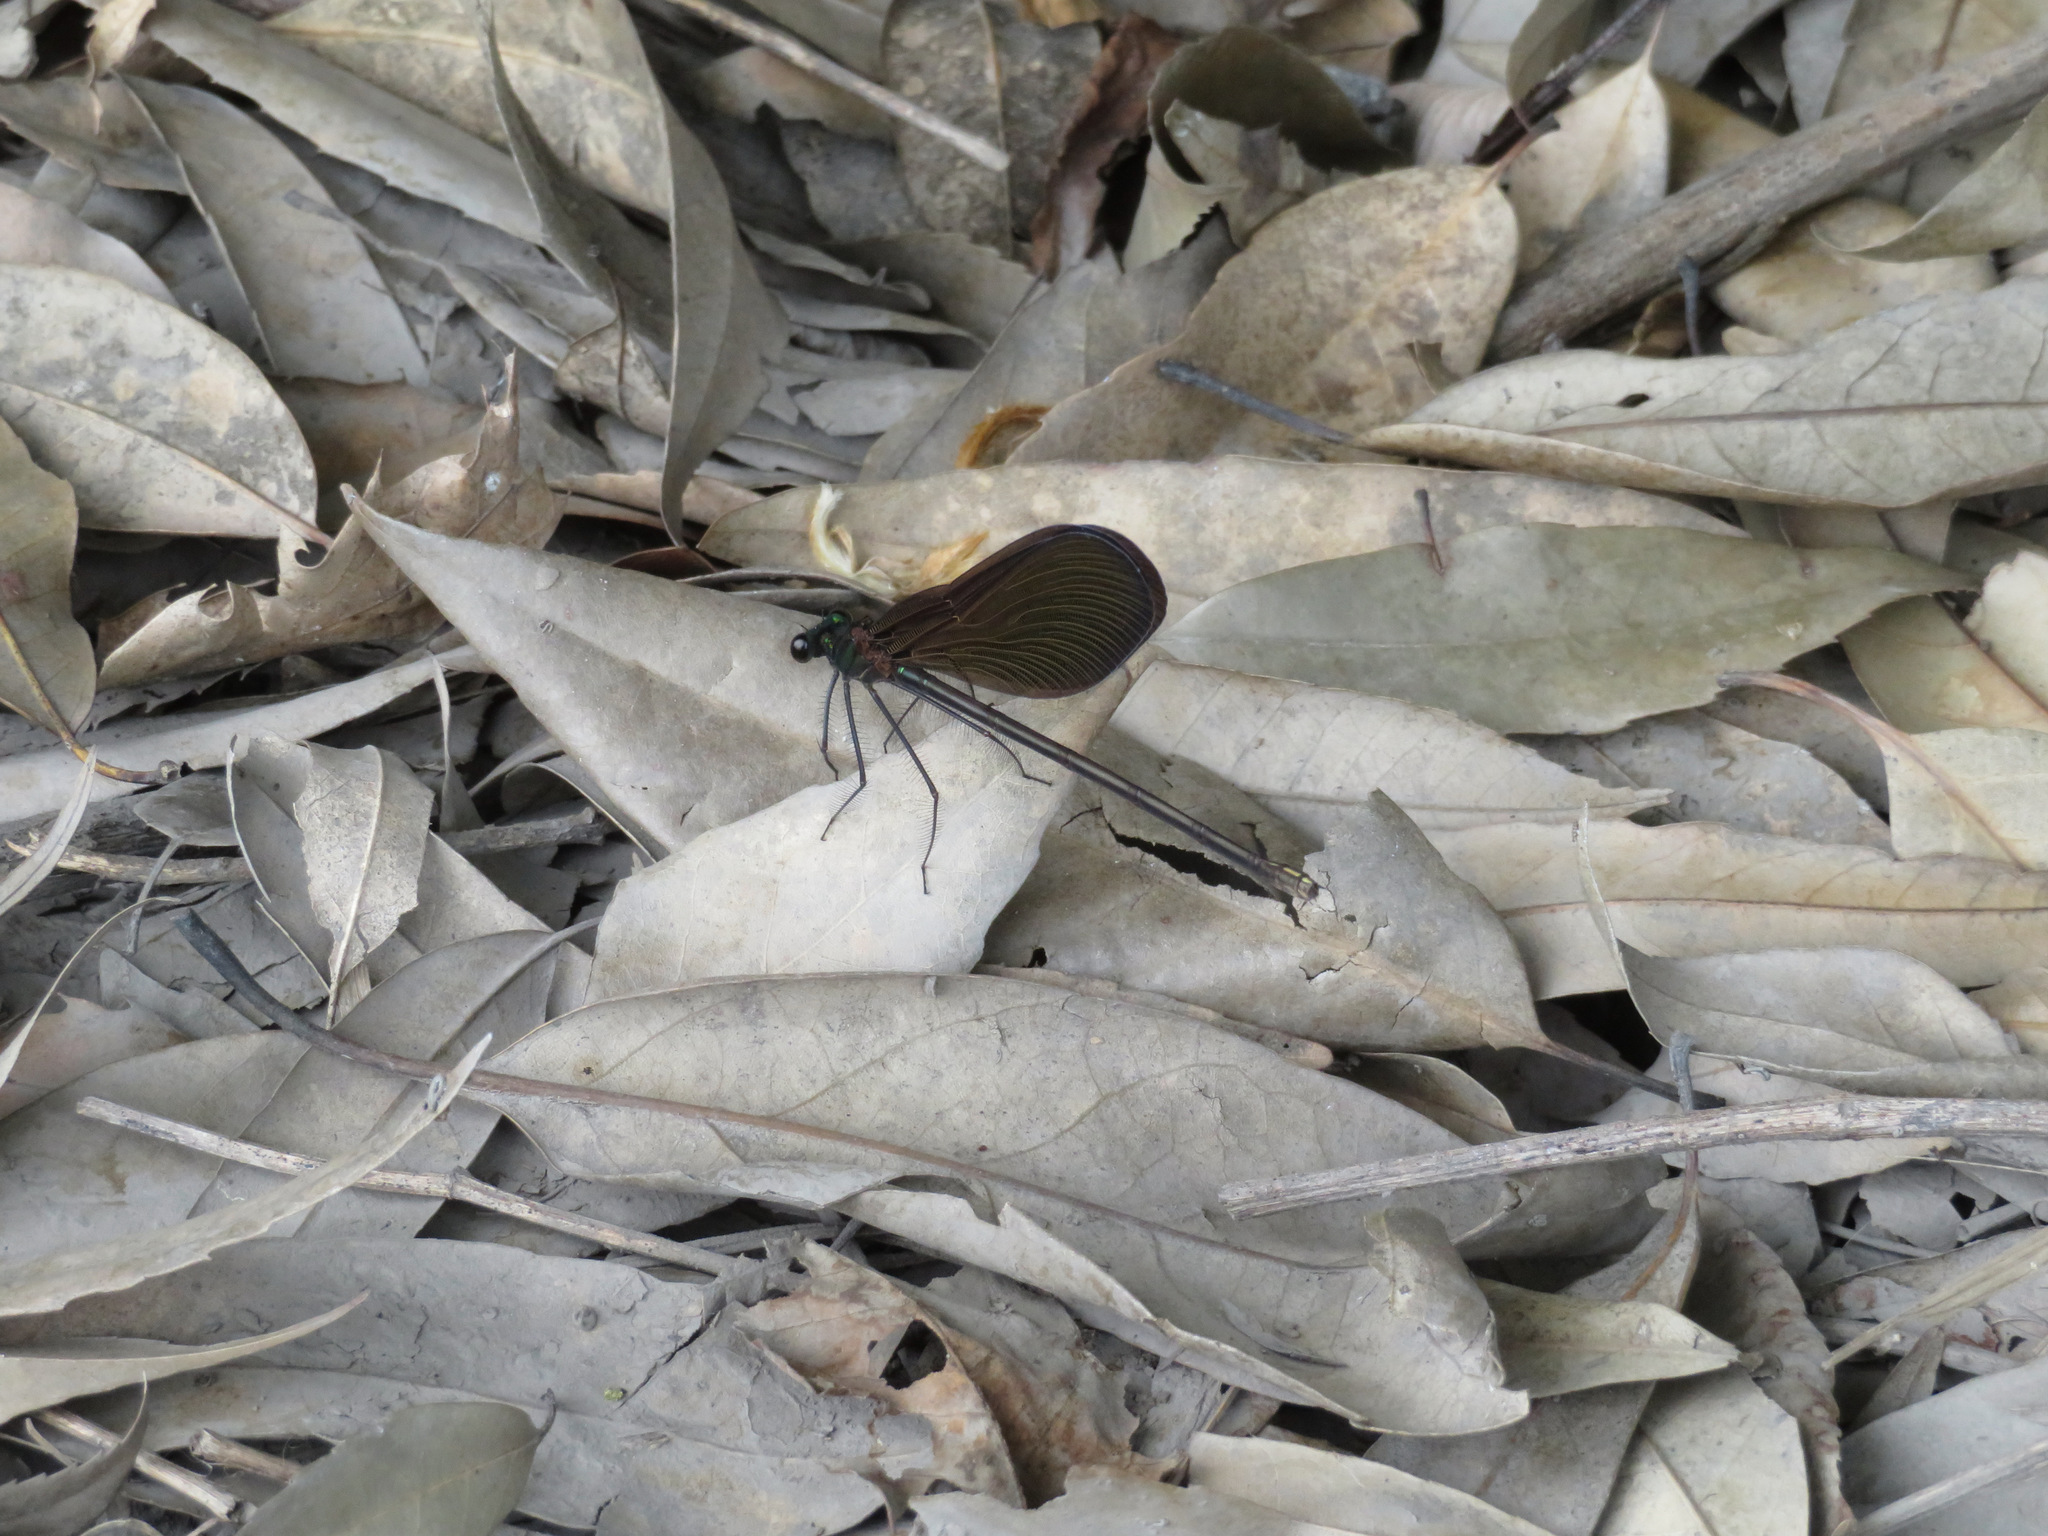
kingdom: Animalia
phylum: Arthropoda
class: Insecta
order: Odonata
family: Calopterygidae
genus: Atrocalopteryx
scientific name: Atrocalopteryx atrata
